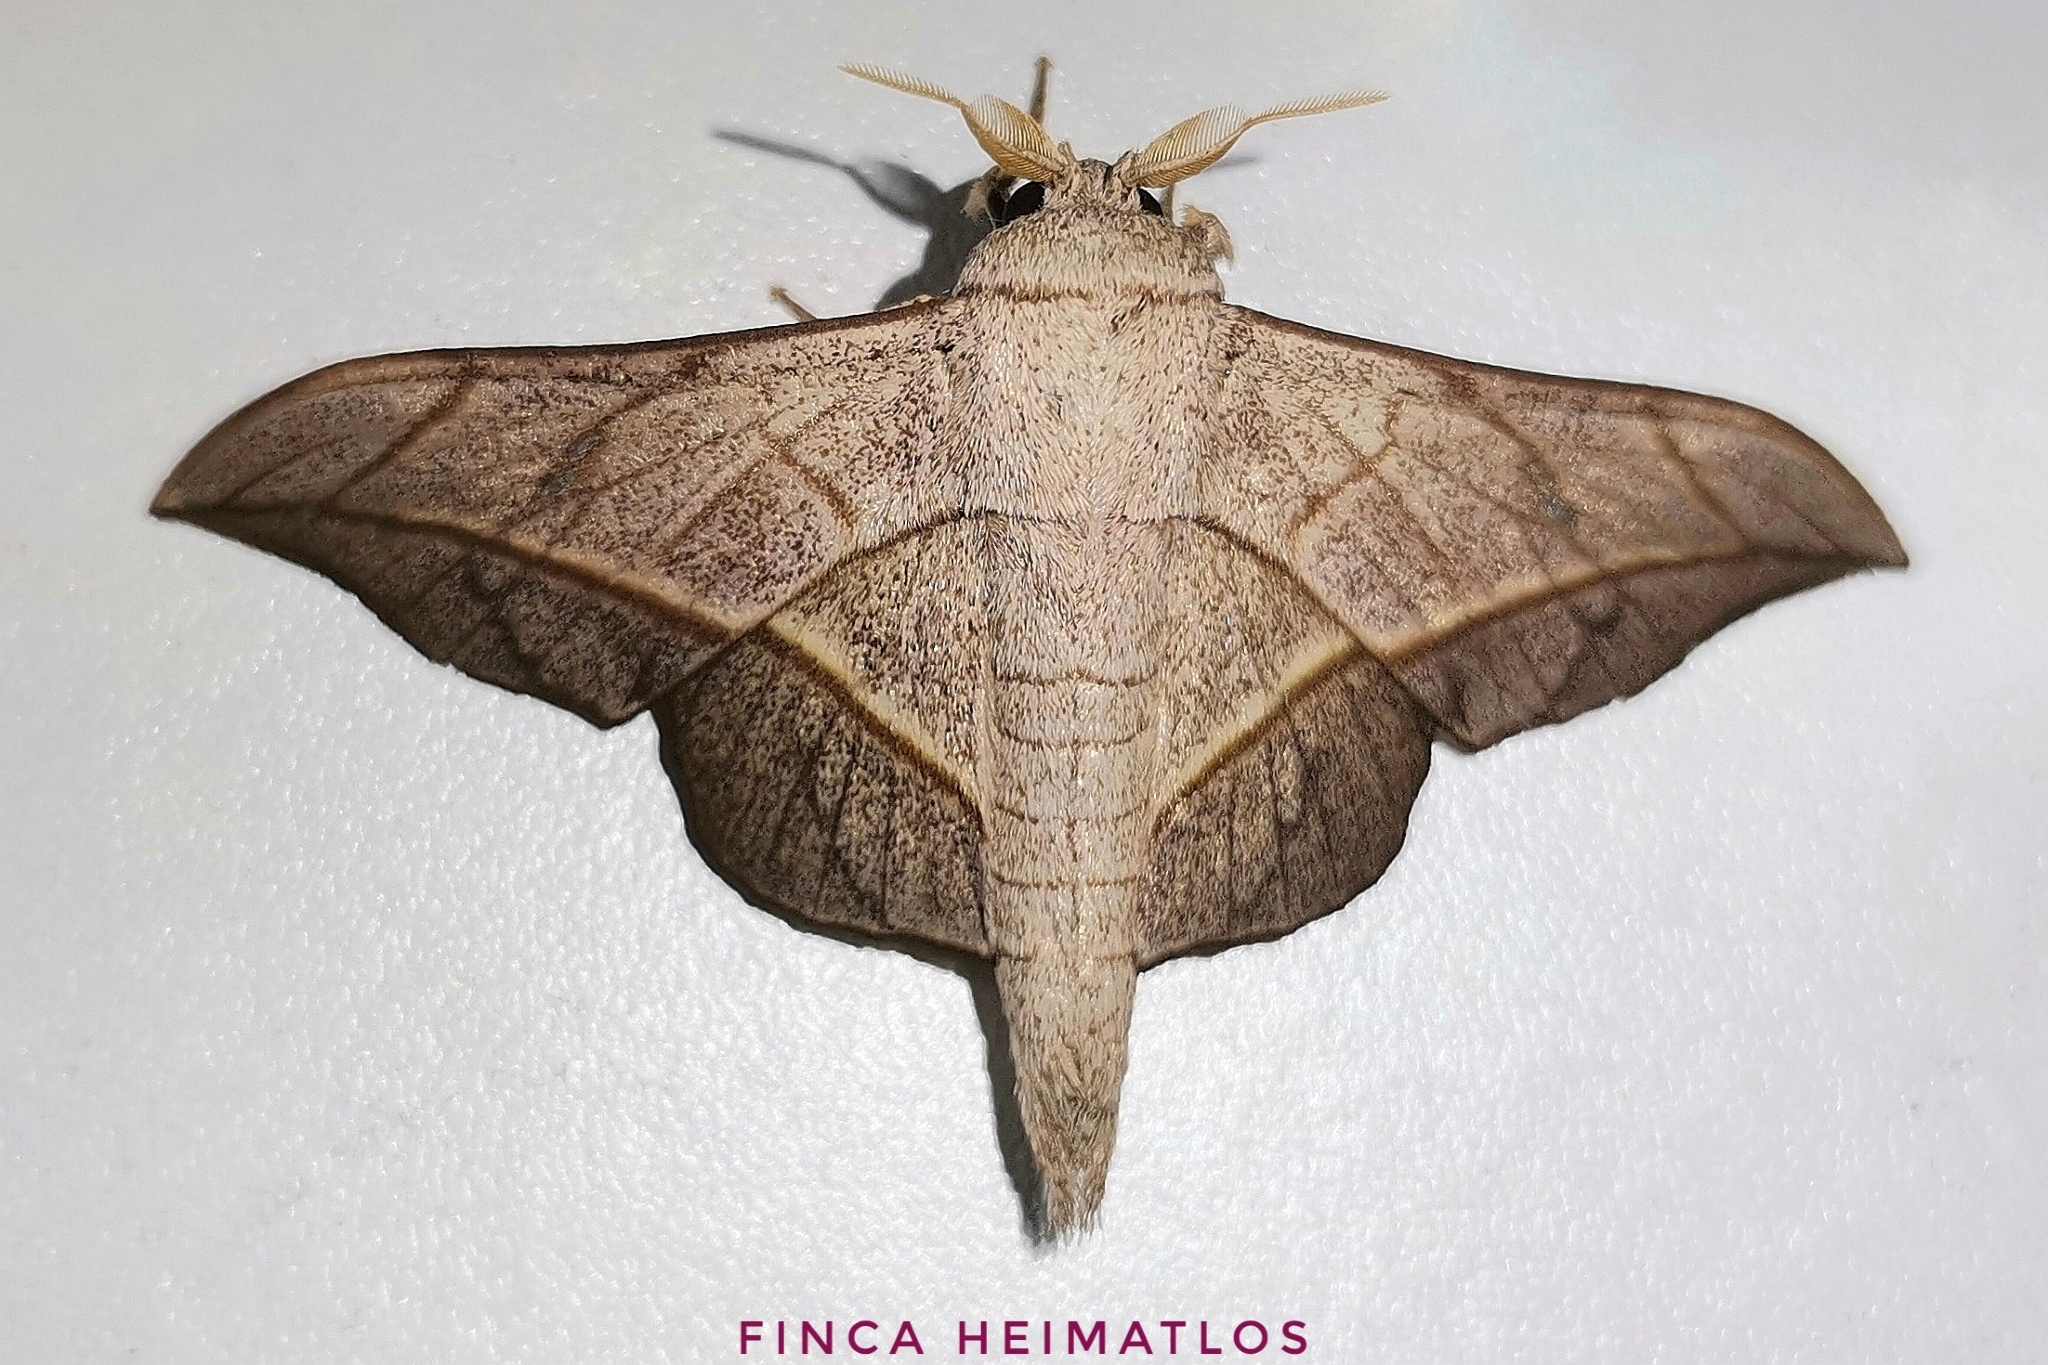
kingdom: Animalia
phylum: Arthropoda
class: Insecta
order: Lepidoptera
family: Mimallonidae
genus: Bedosia
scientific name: Bedosia fraterna
